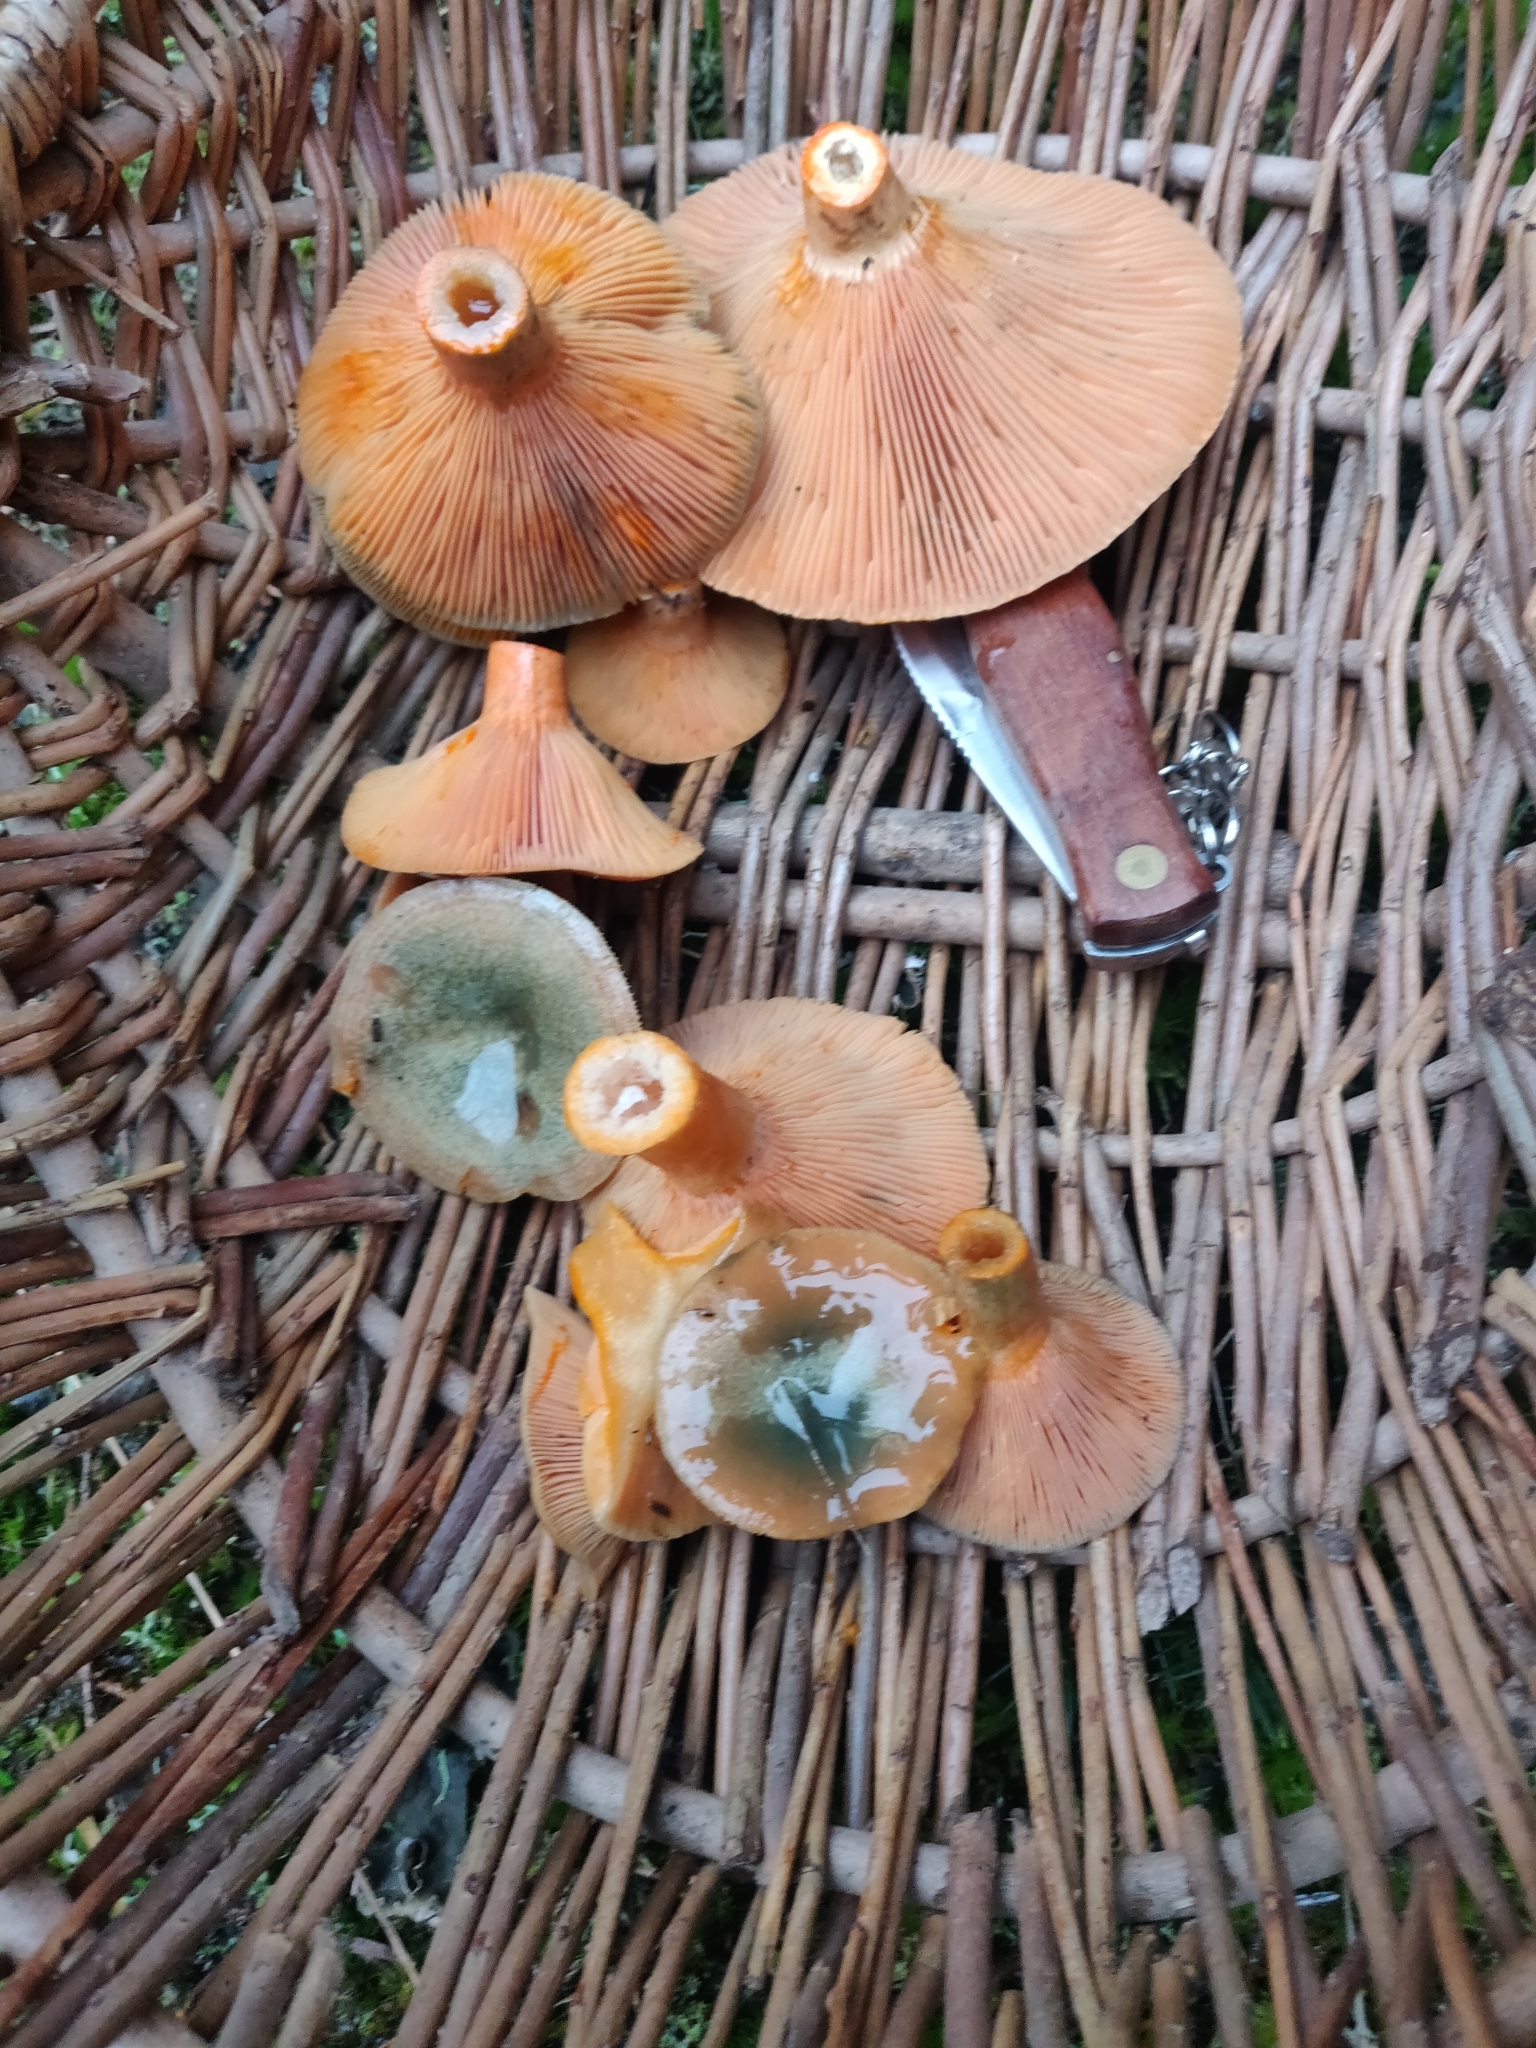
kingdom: Fungi
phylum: Basidiomycota
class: Agaricomycetes
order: Russulales
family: Russulaceae
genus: Lactarius
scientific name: Lactarius deterrimus
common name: False saffron milkcap
